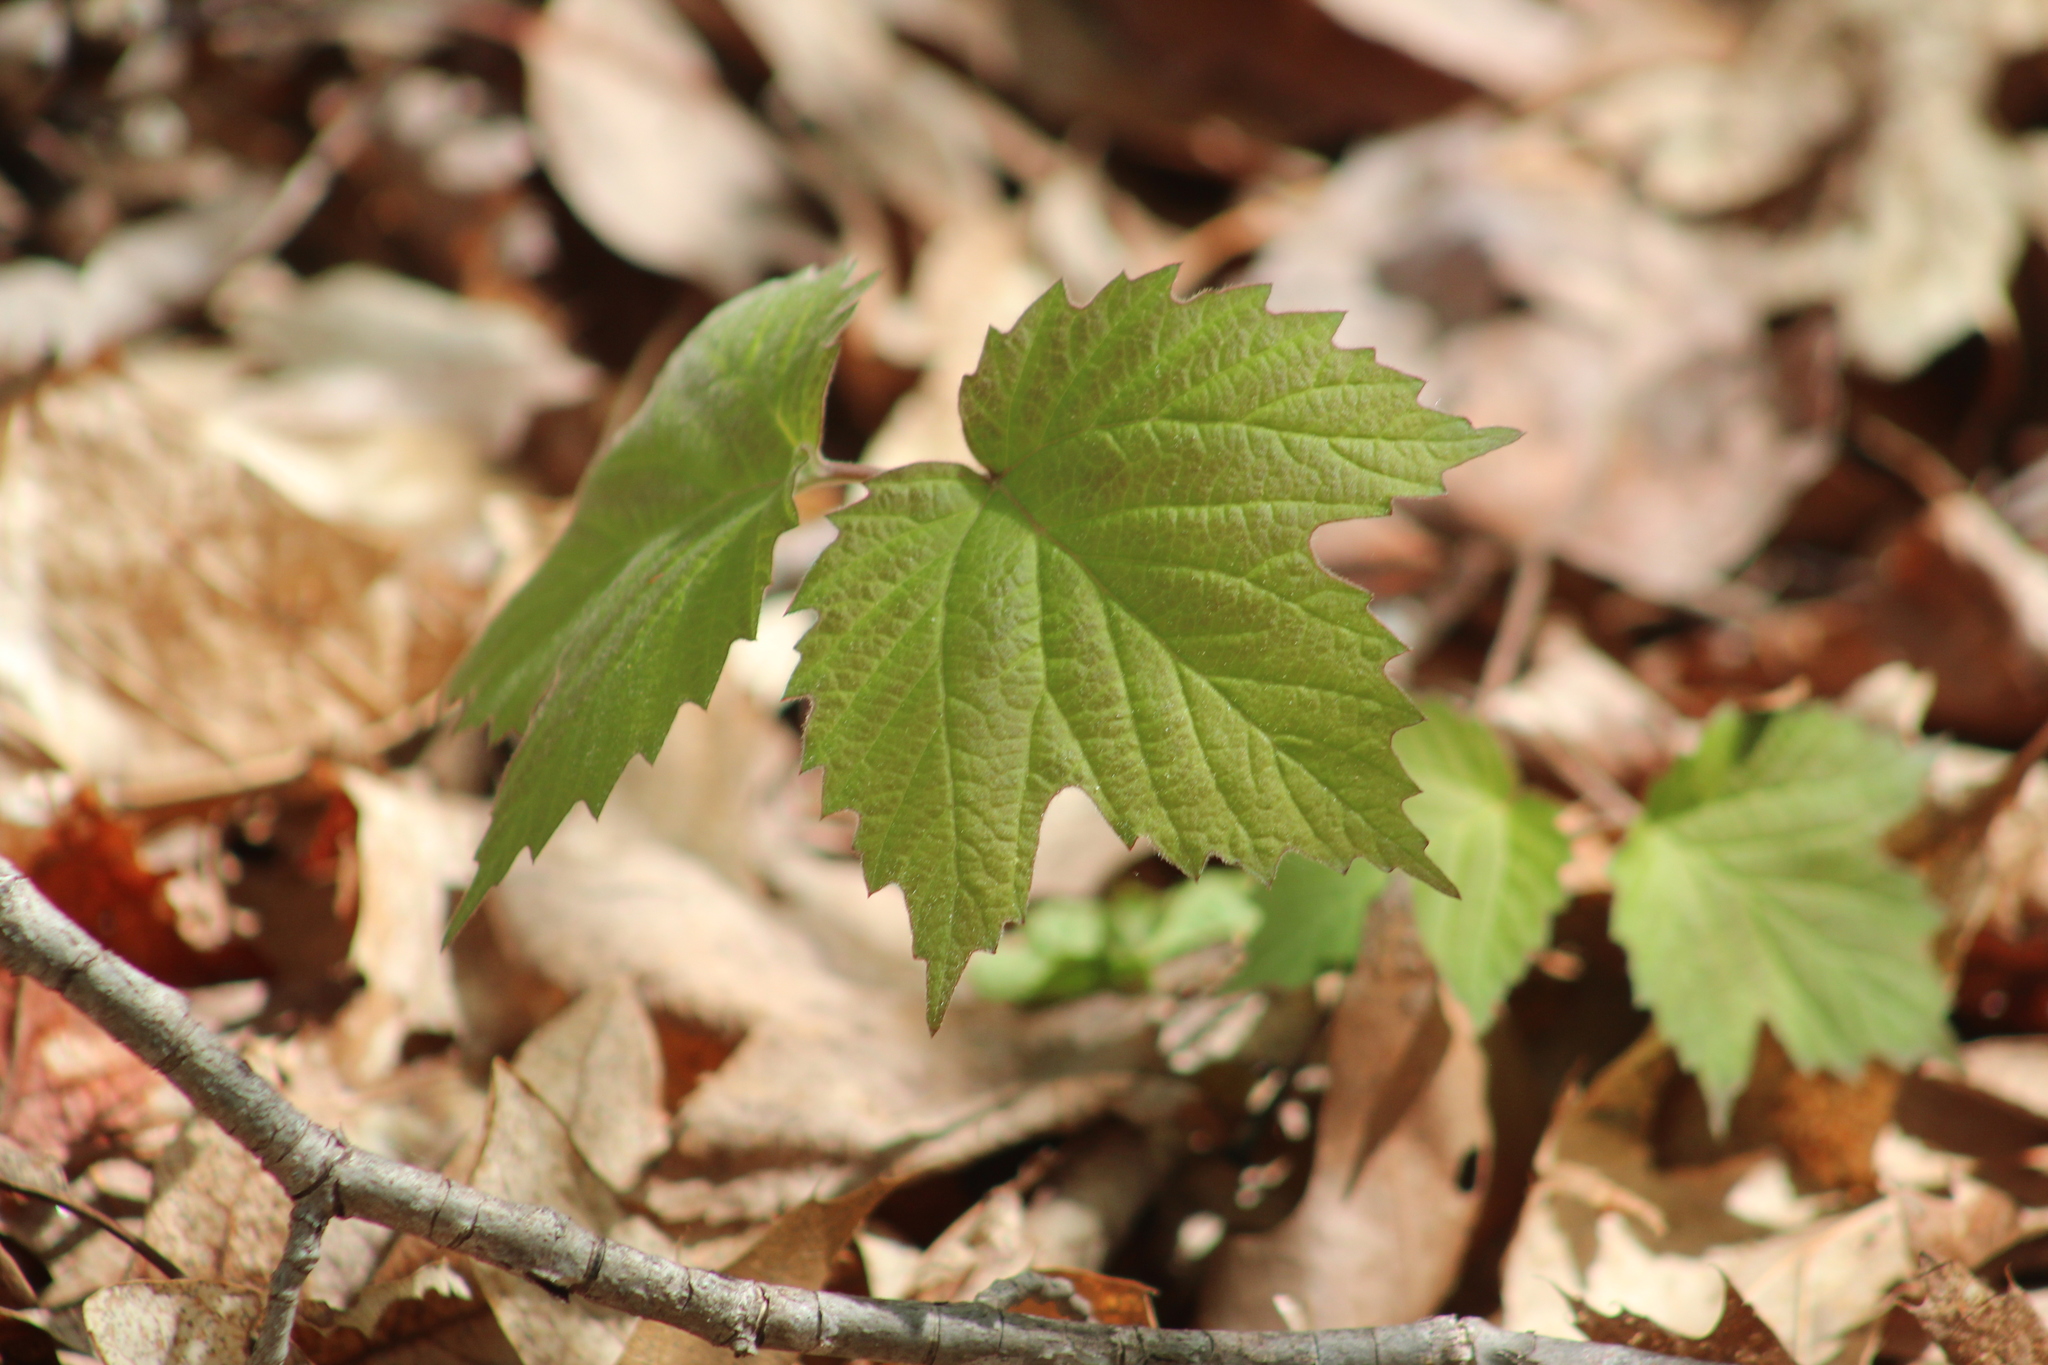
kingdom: Plantae
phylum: Tracheophyta
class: Magnoliopsida
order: Dipsacales
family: Viburnaceae
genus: Viburnum
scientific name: Viburnum acerifolium
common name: Dockmackie
